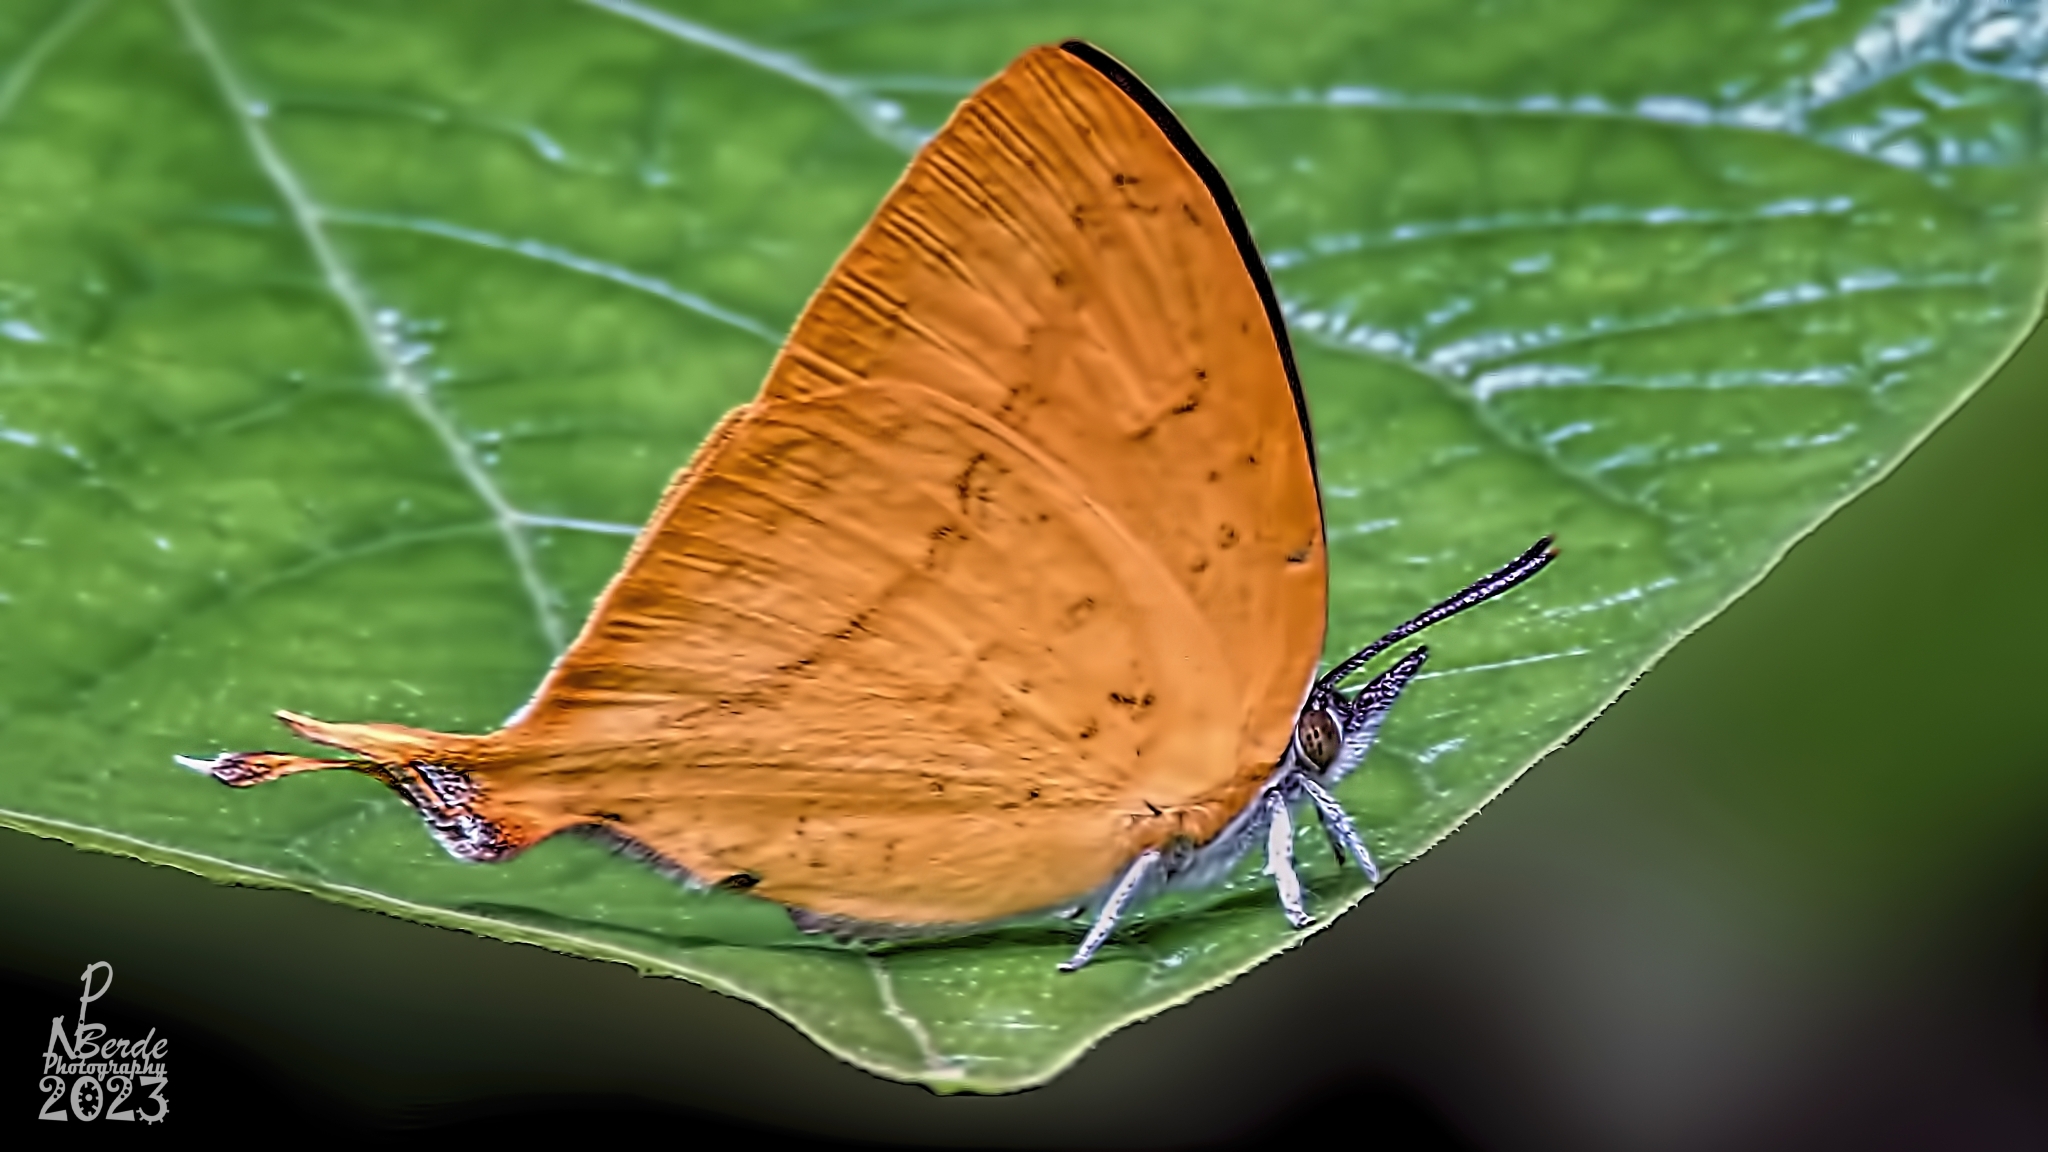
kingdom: Animalia
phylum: Arthropoda
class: Insecta
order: Lepidoptera
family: Lycaenidae
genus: Loxura
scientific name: Loxura atymnus
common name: Common yamfly
